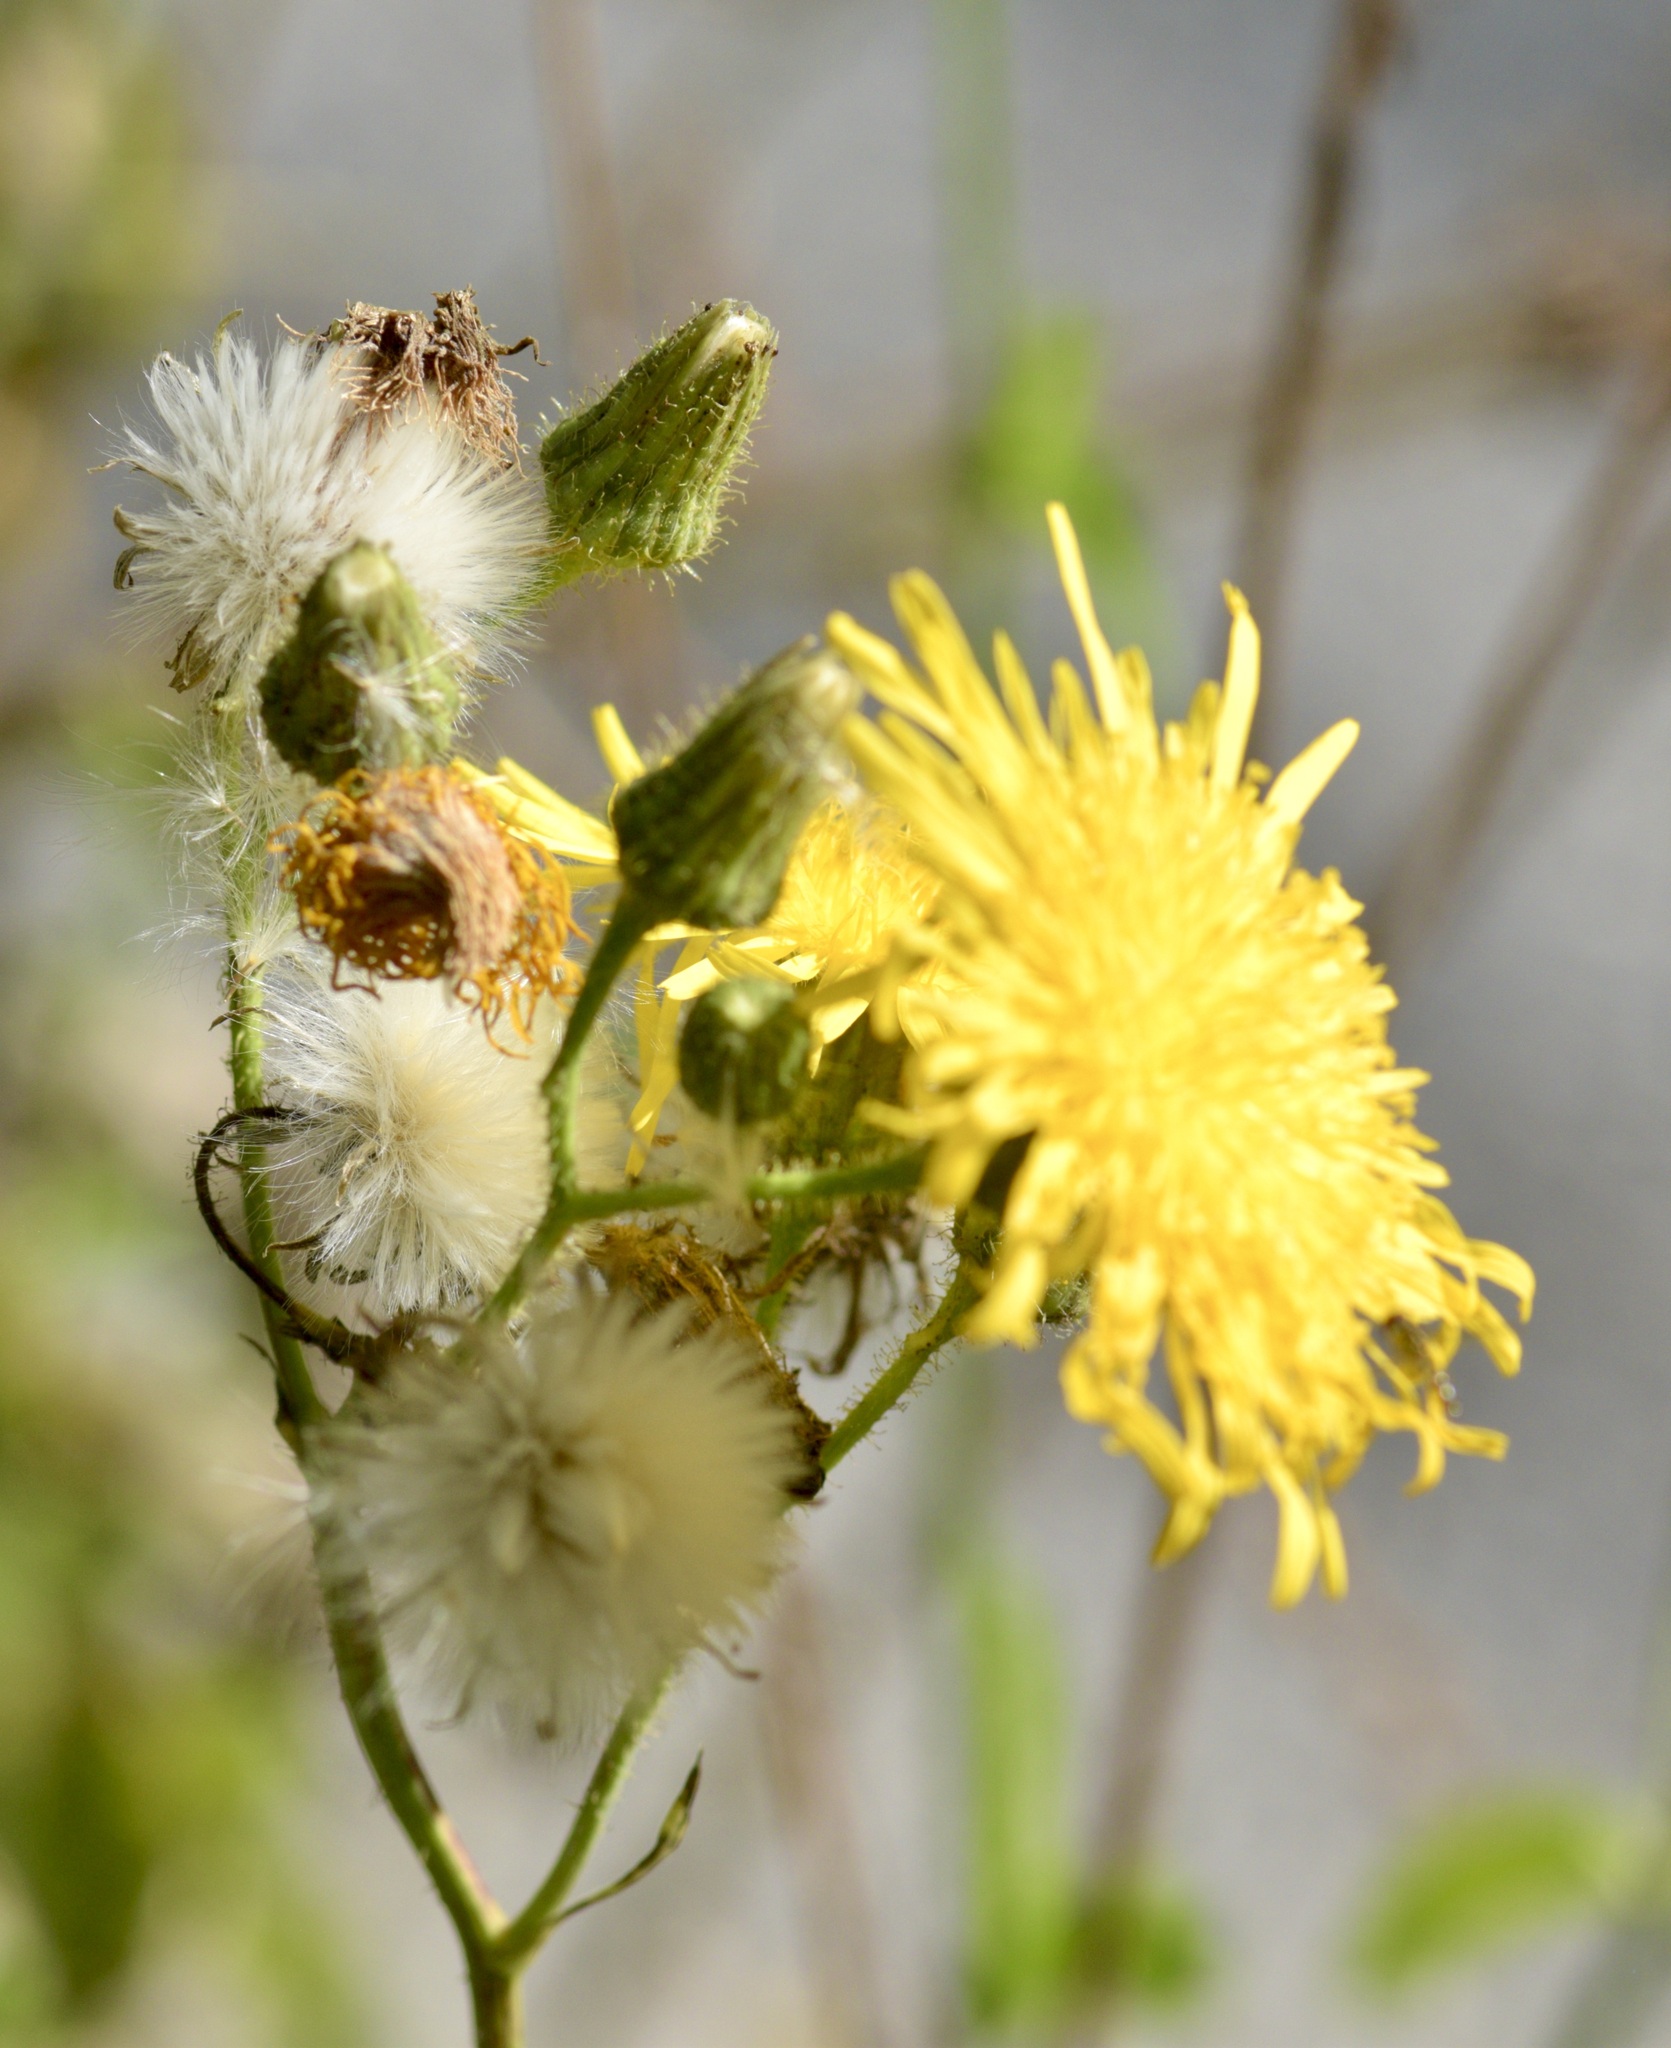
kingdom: Plantae
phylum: Tracheophyta
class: Magnoliopsida
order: Asterales
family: Asteraceae
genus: Sonchus
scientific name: Sonchus arvensis
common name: Perennial sow-thistle
